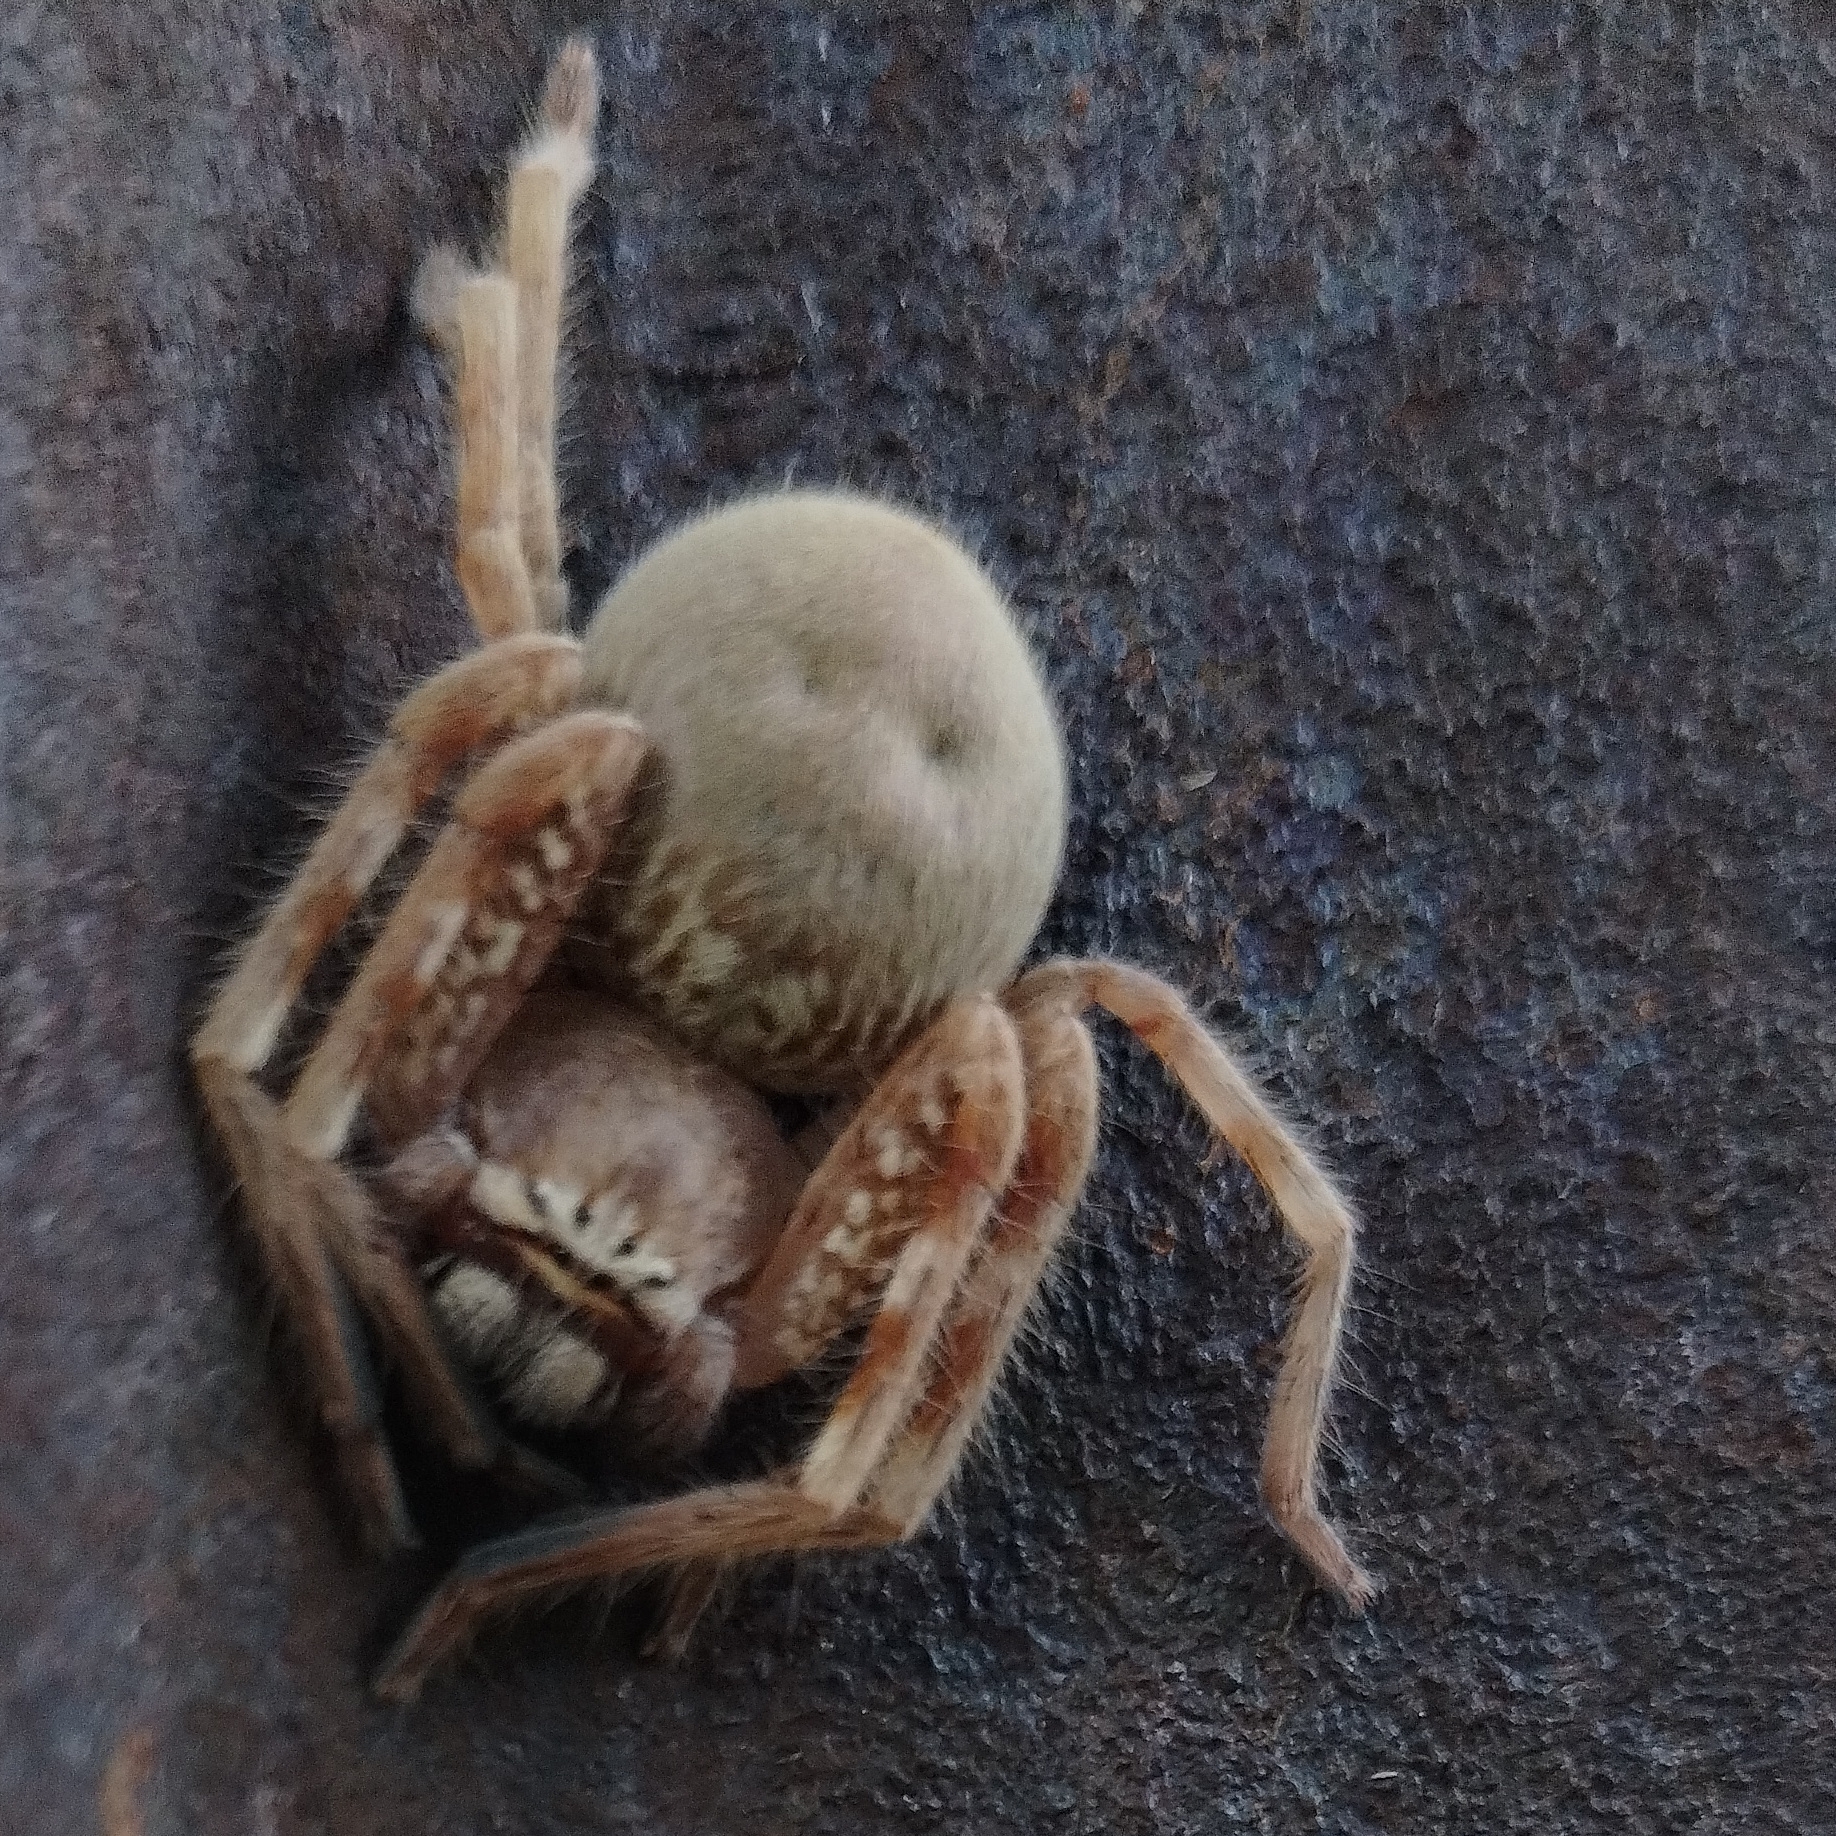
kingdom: Animalia
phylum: Arthropoda
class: Arachnida
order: Araneae
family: Sparassidae
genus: Neosparassus
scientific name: Neosparassus rutilus
